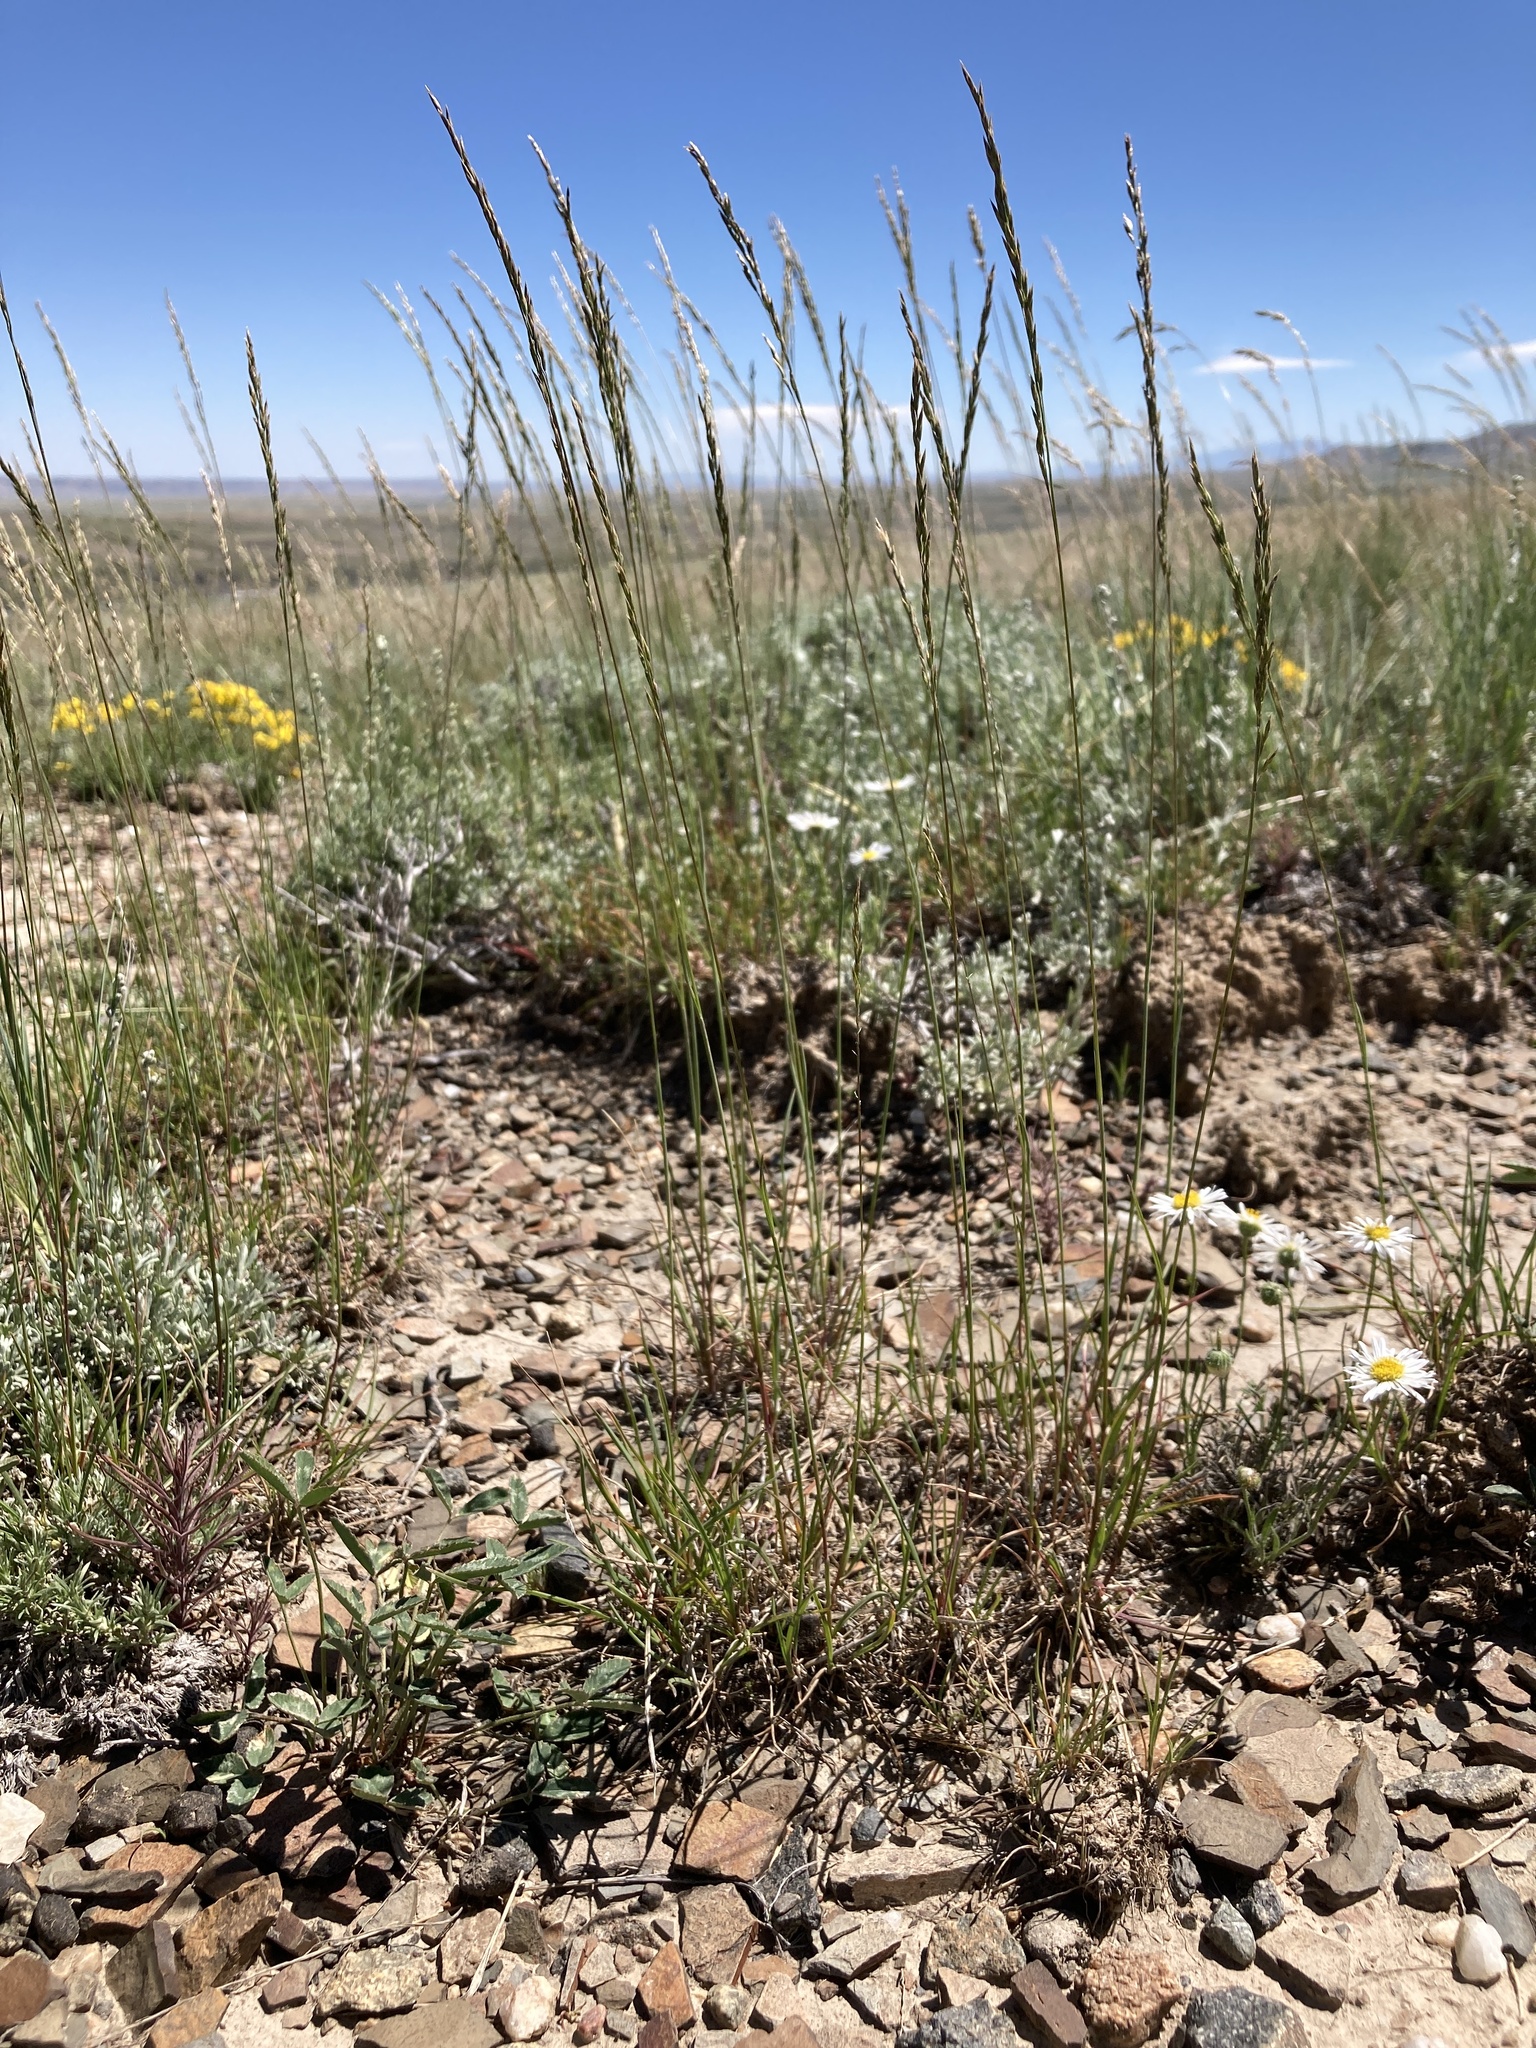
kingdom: Plantae
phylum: Tracheophyta
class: Liliopsida
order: Poales
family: Poaceae
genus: Poa
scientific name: Poa secunda
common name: Sandberg bluegrass
